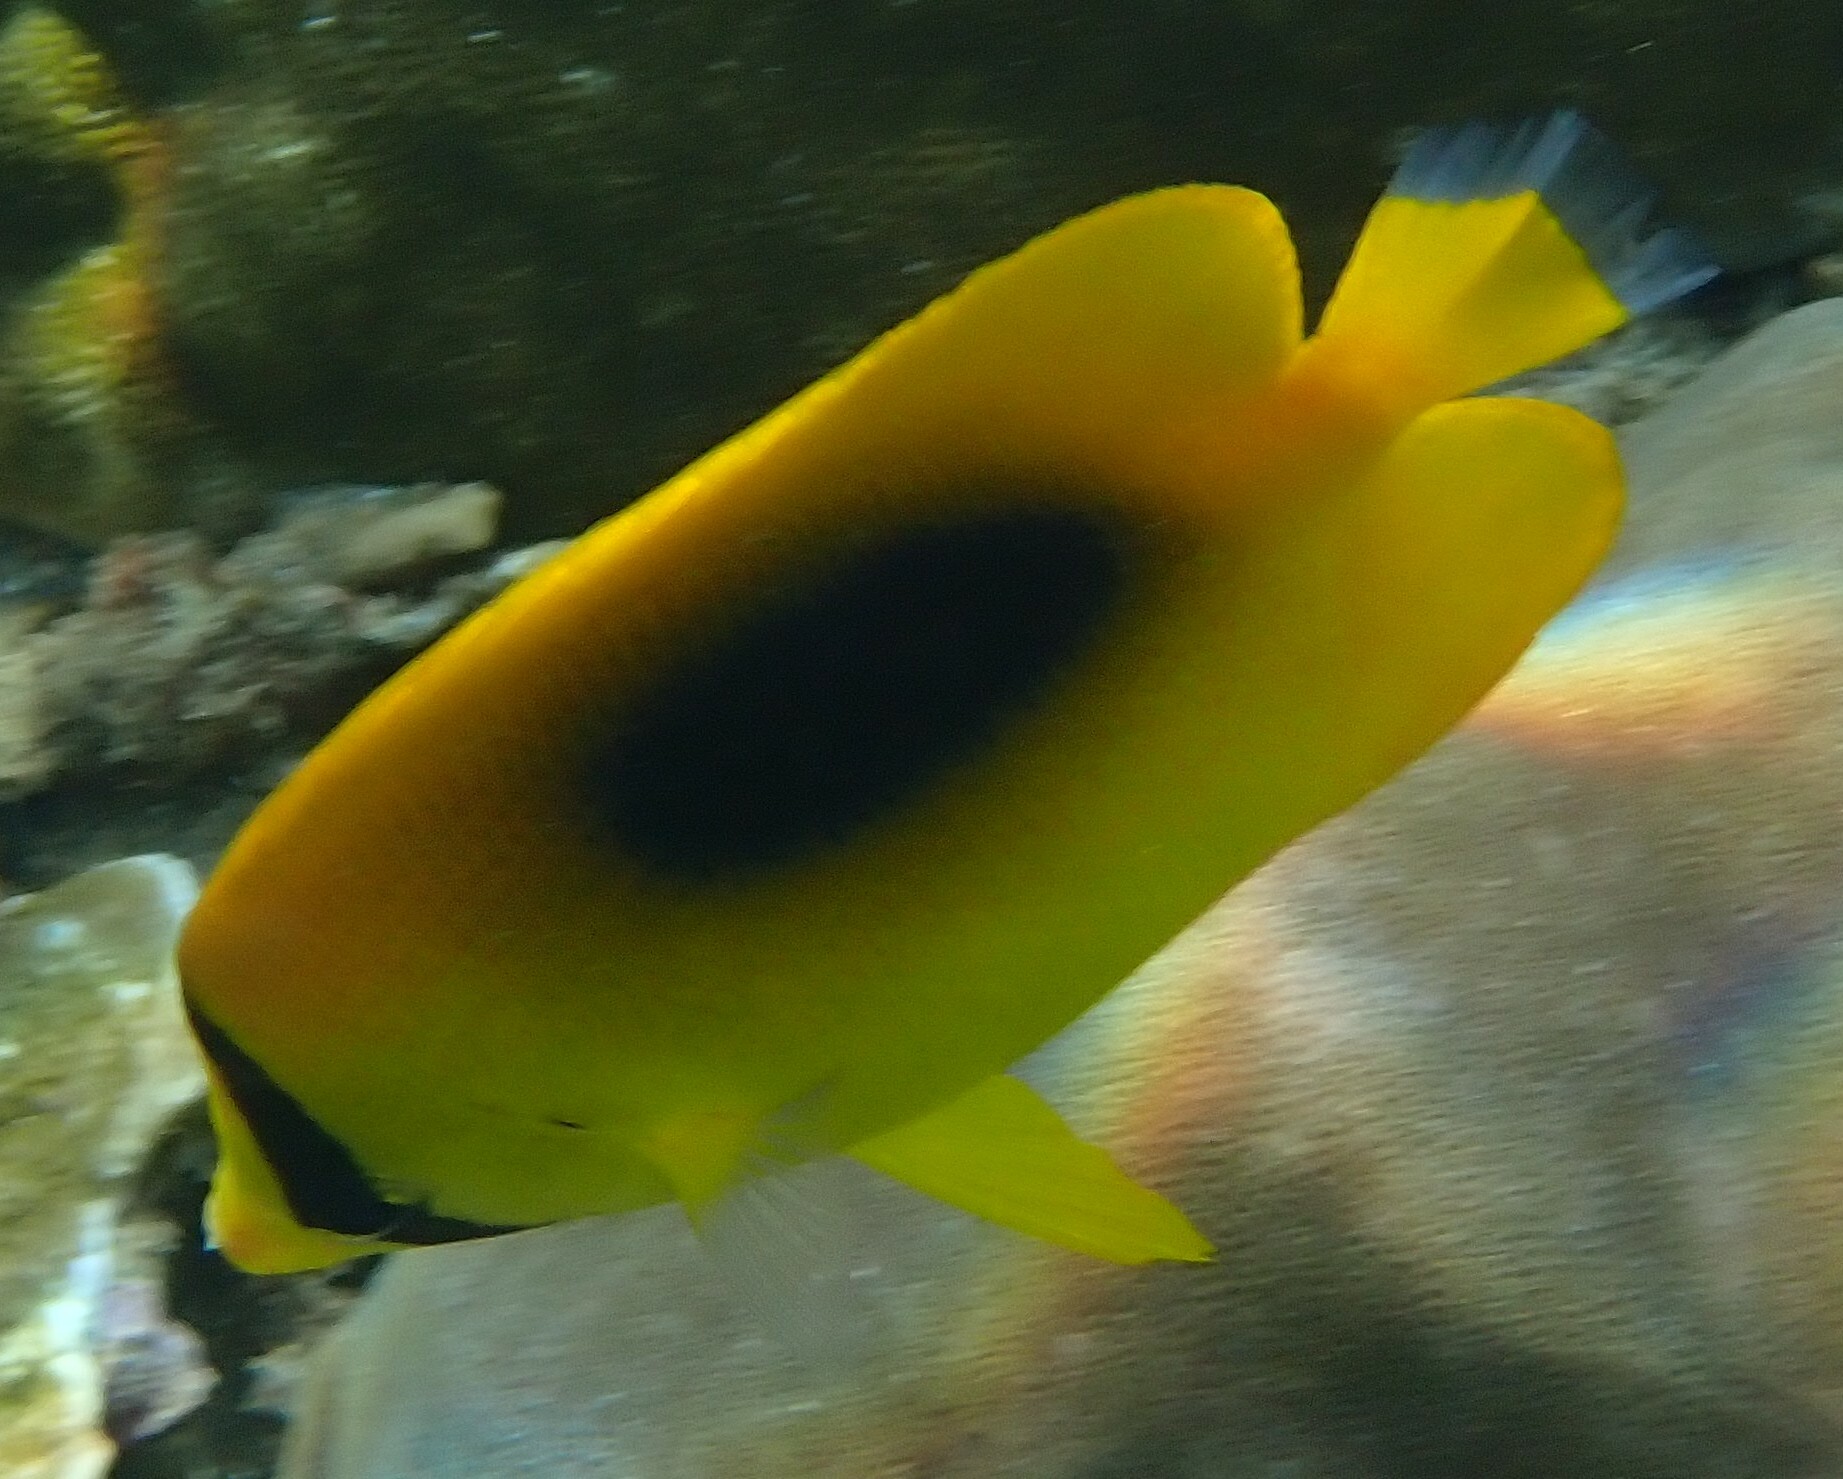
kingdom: Animalia
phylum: Chordata
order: Perciformes
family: Chaetodontidae
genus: Chaetodon
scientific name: Chaetodon speculum
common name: Mirror butterflyfish
